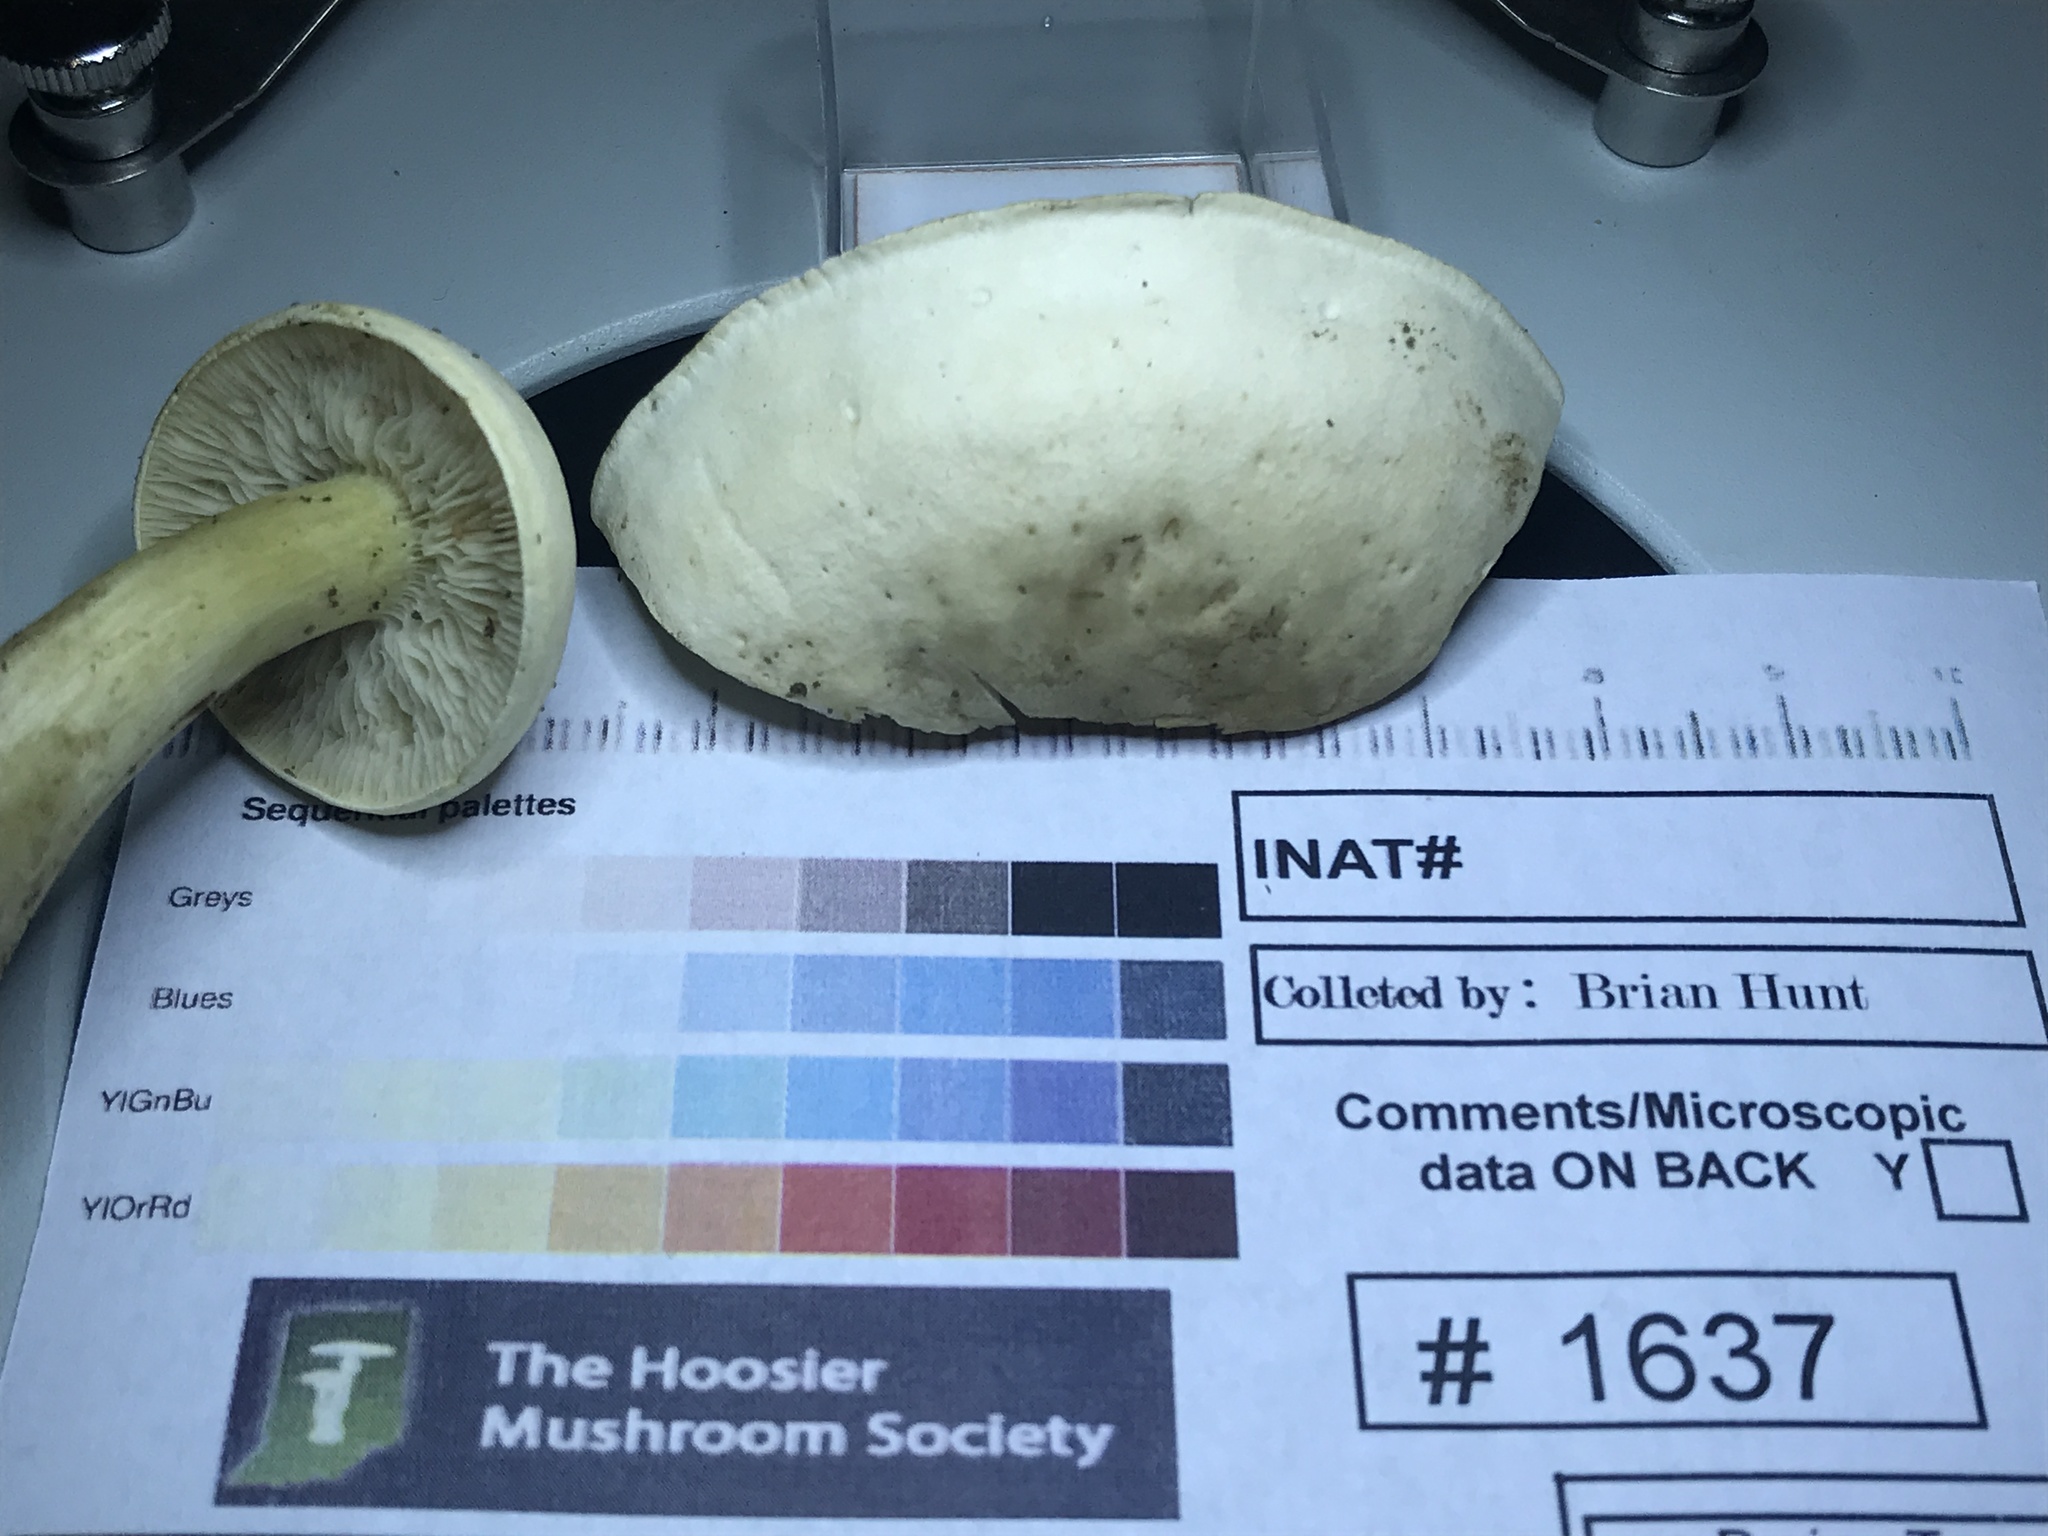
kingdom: Fungi
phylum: Basidiomycota
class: Agaricomycetes
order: Agaricales
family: Tricholomataceae
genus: Tricholoma
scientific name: Tricholoma odorum
